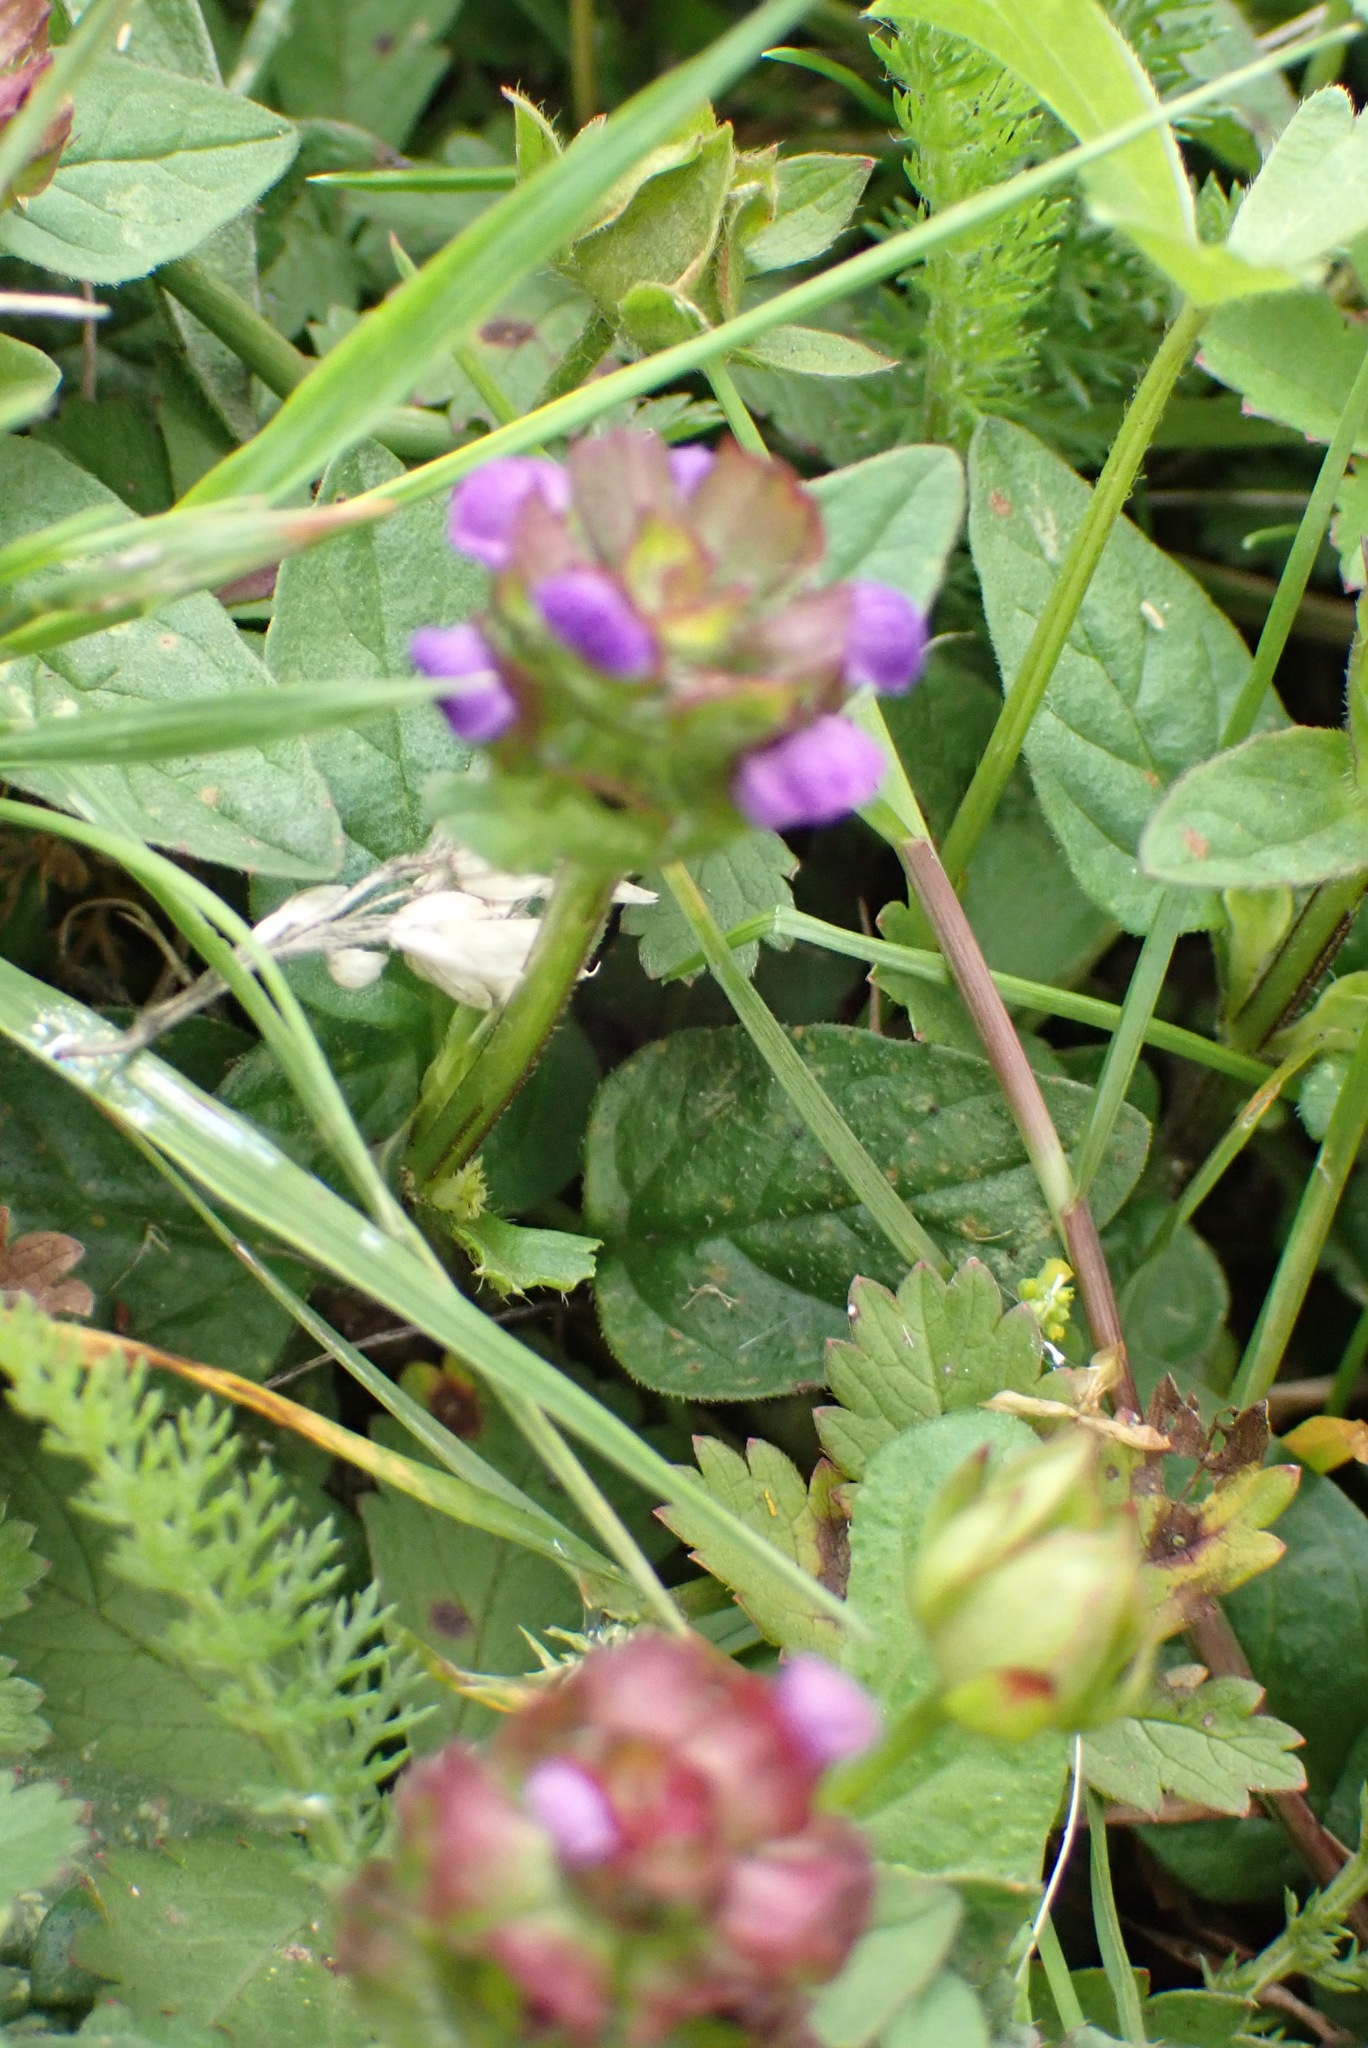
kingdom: Plantae
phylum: Tracheophyta
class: Magnoliopsida
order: Lamiales
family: Lamiaceae
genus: Prunella
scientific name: Prunella vulgaris
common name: Heal-all
